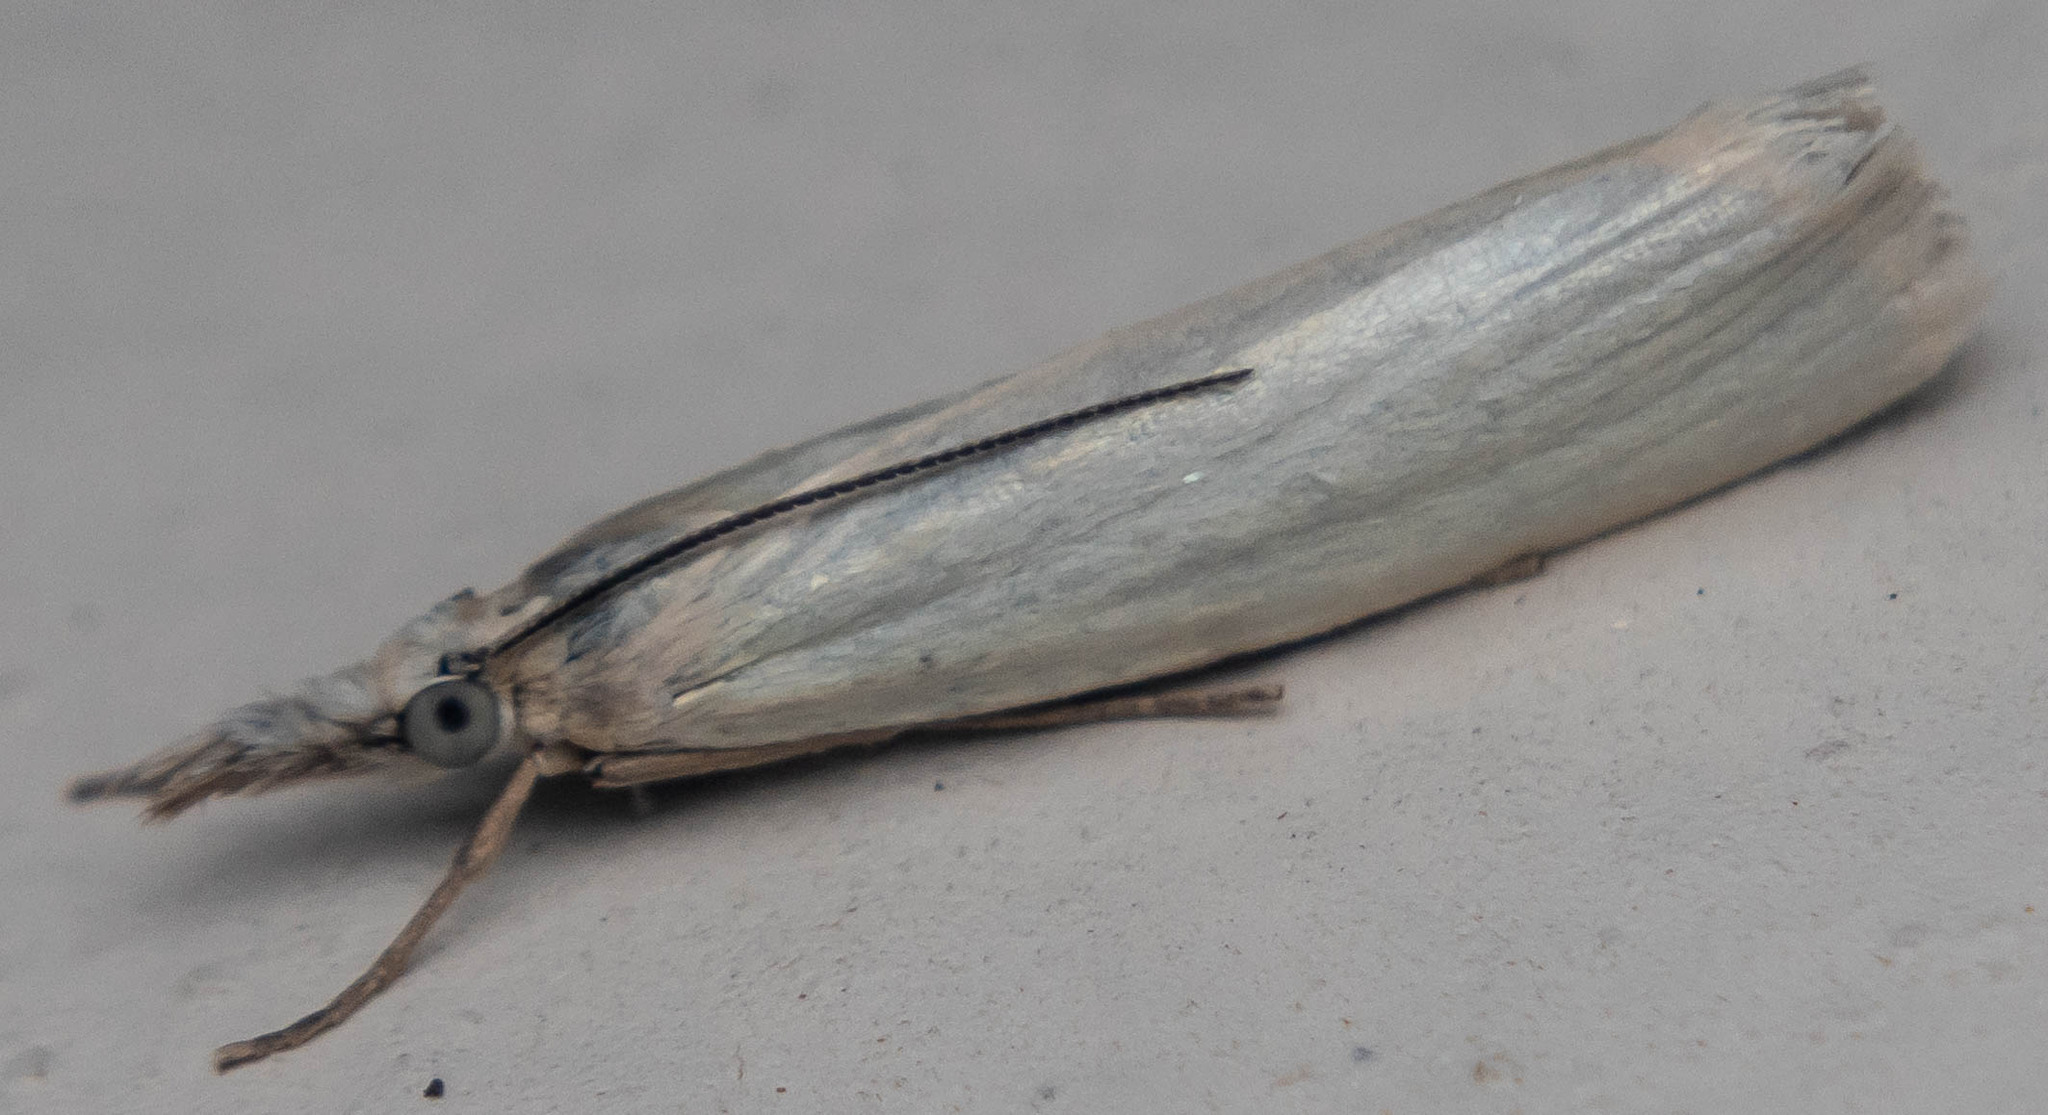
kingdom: Animalia
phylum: Arthropoda
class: Insecta
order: Lepidoptera
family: Crambidae
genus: Crambus
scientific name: Crambus perlellus
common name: Yellow satin veneer
